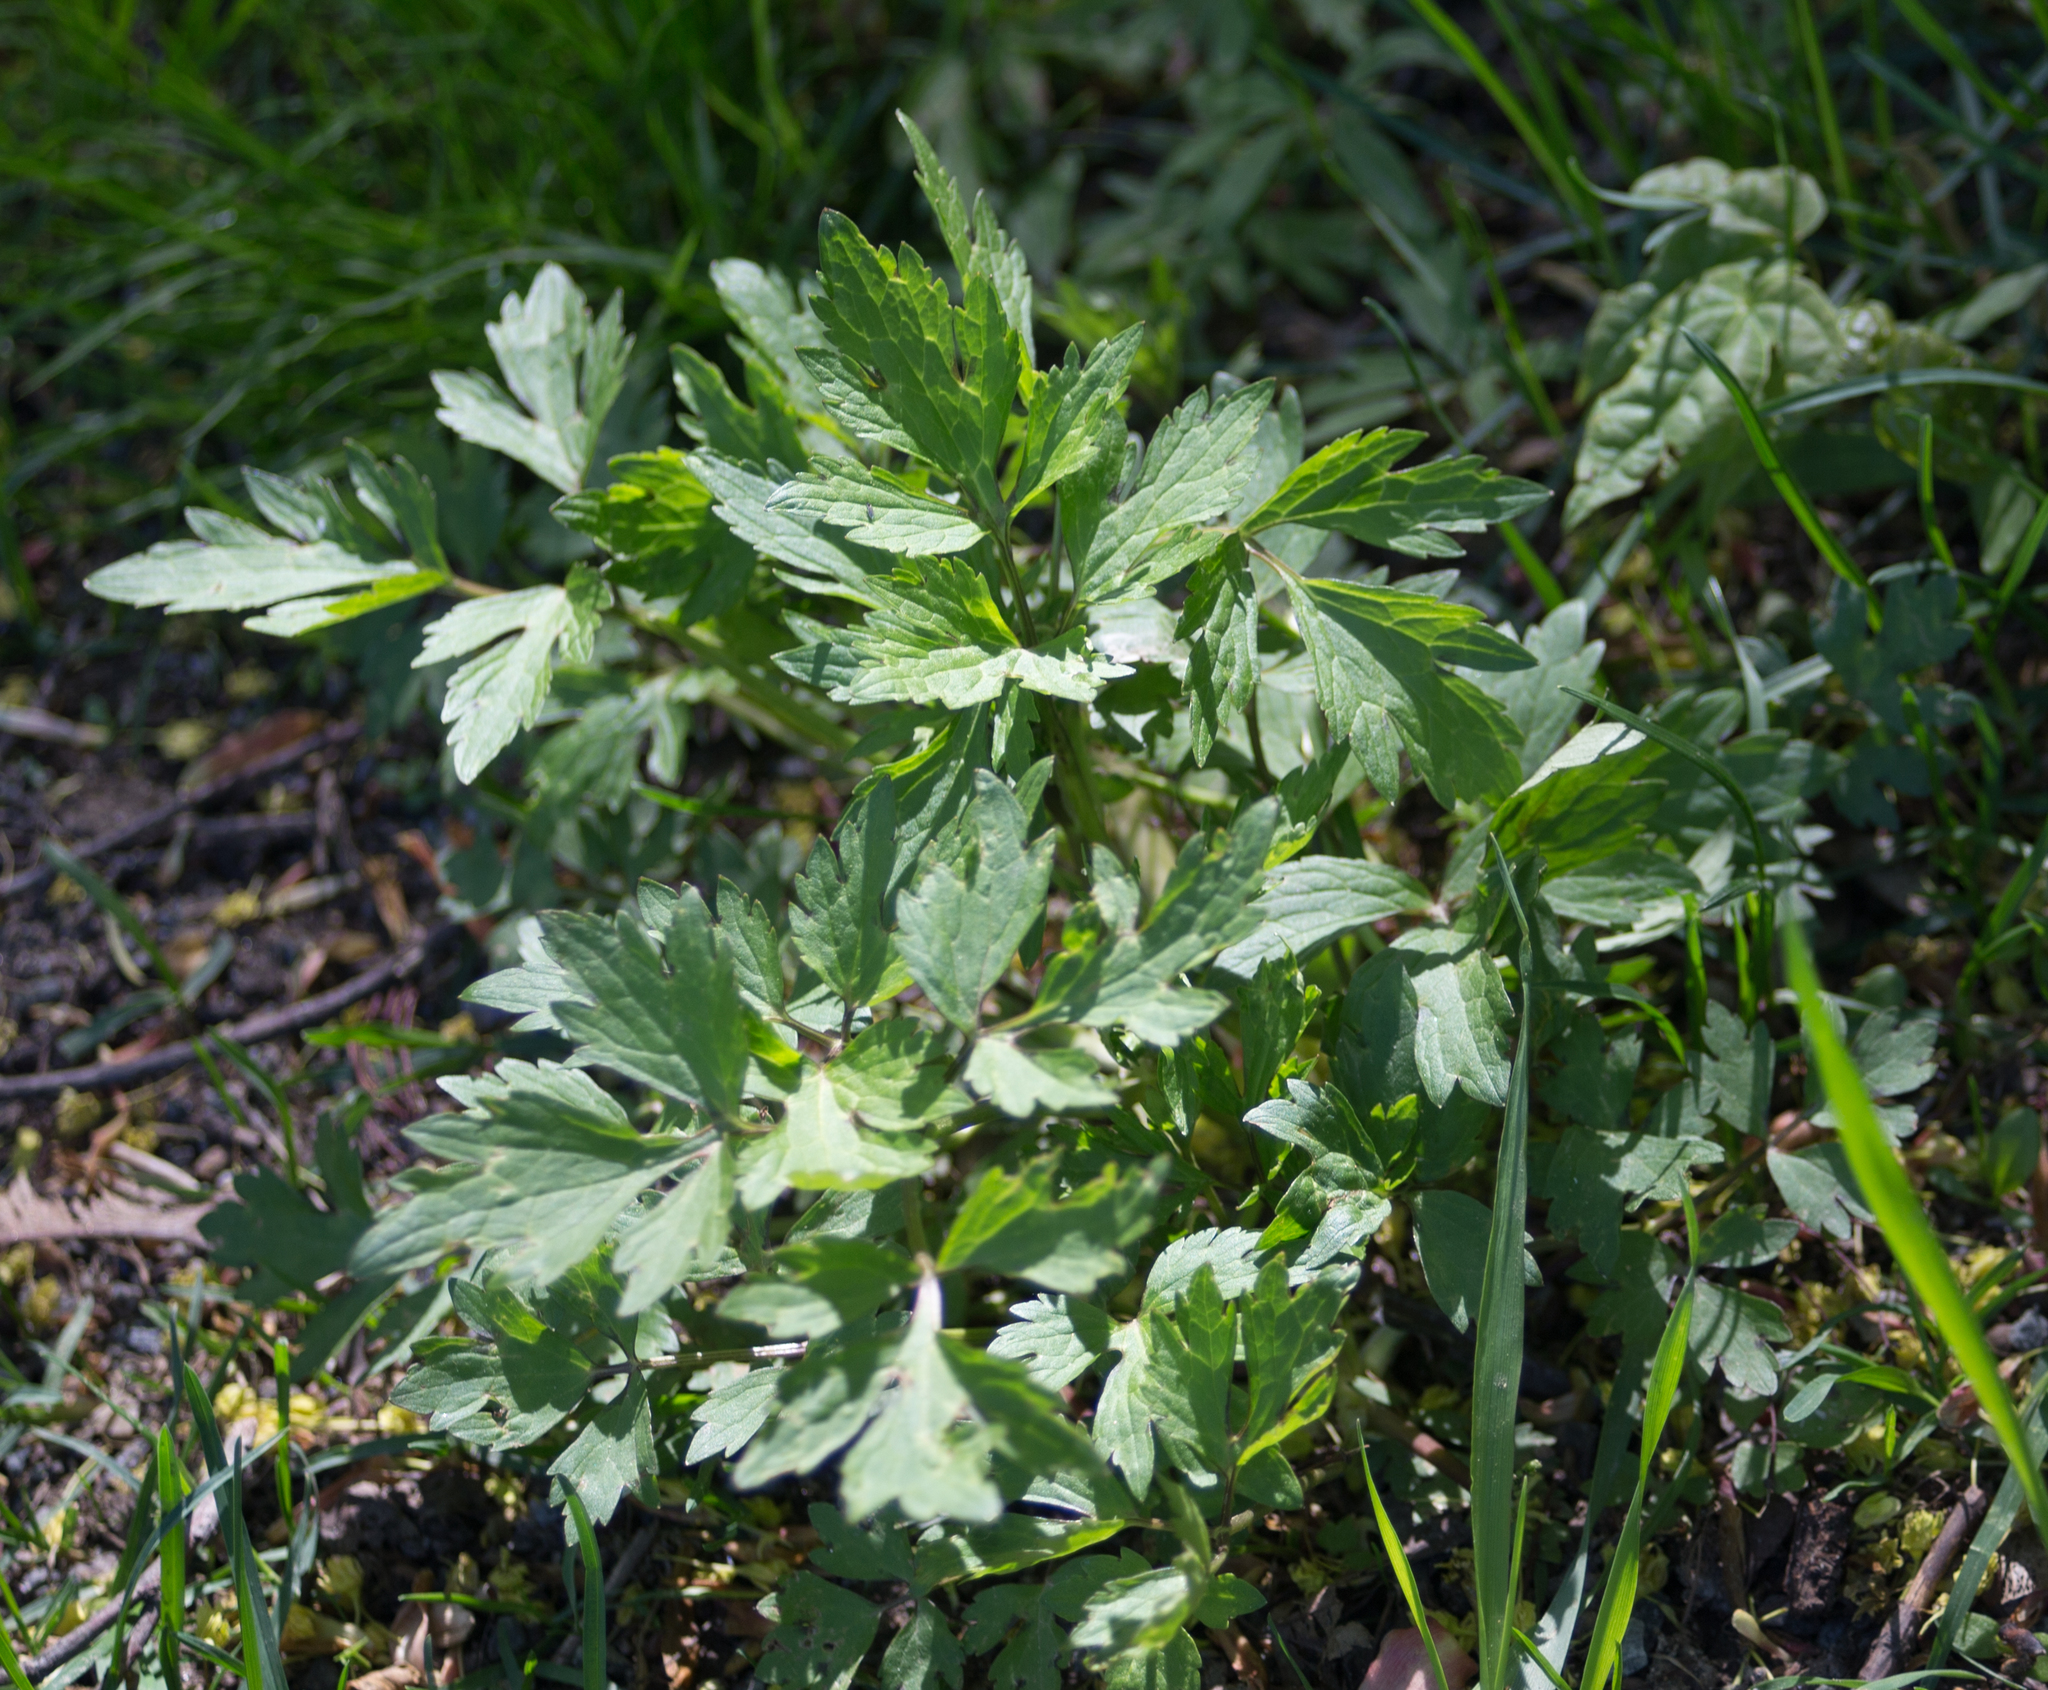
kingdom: Plantae
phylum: Tracheophyta
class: Magnoliopsida
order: Ranunculales
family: Ranunculaceae
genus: Ranunculus
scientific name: Ranunculus repens
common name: Creeping buttercup
